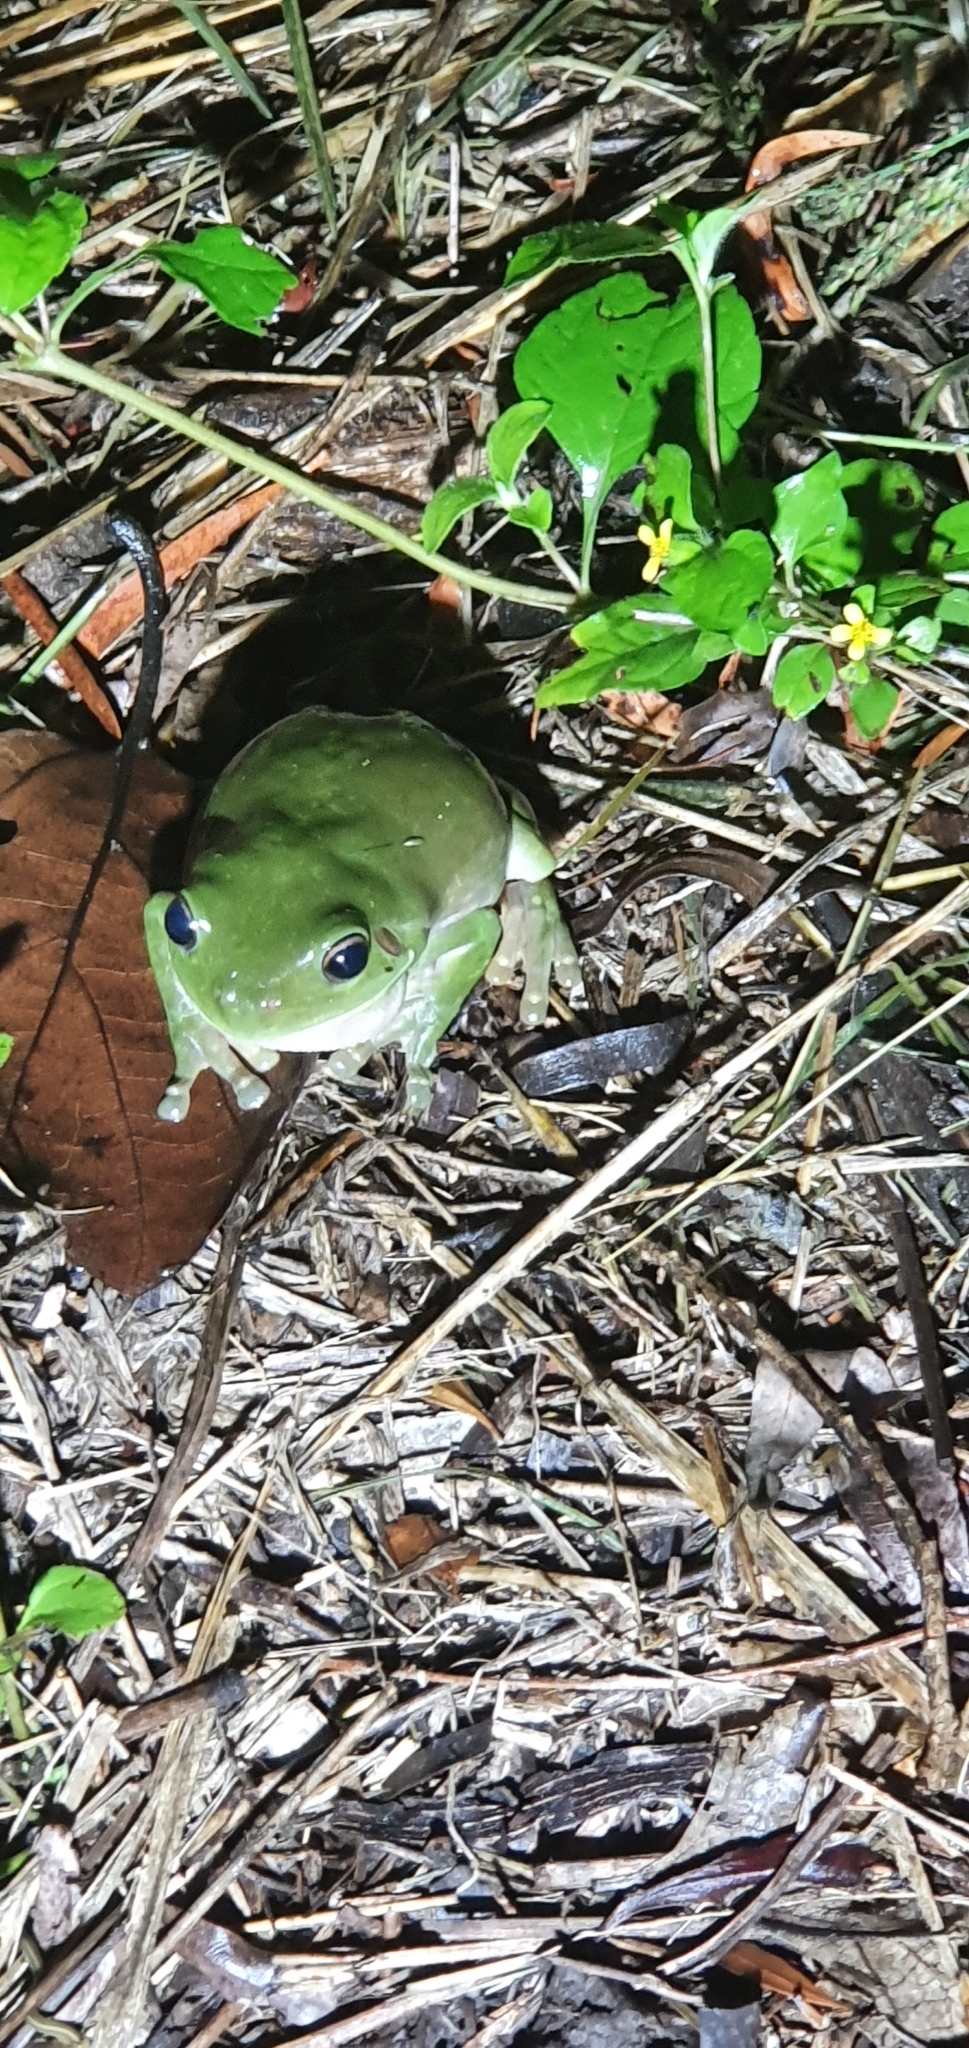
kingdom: Animalia
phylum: Chordata
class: Amphibia
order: Anura
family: Pelodryadidae
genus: Ranoidea
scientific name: Ranoidea caerulea
